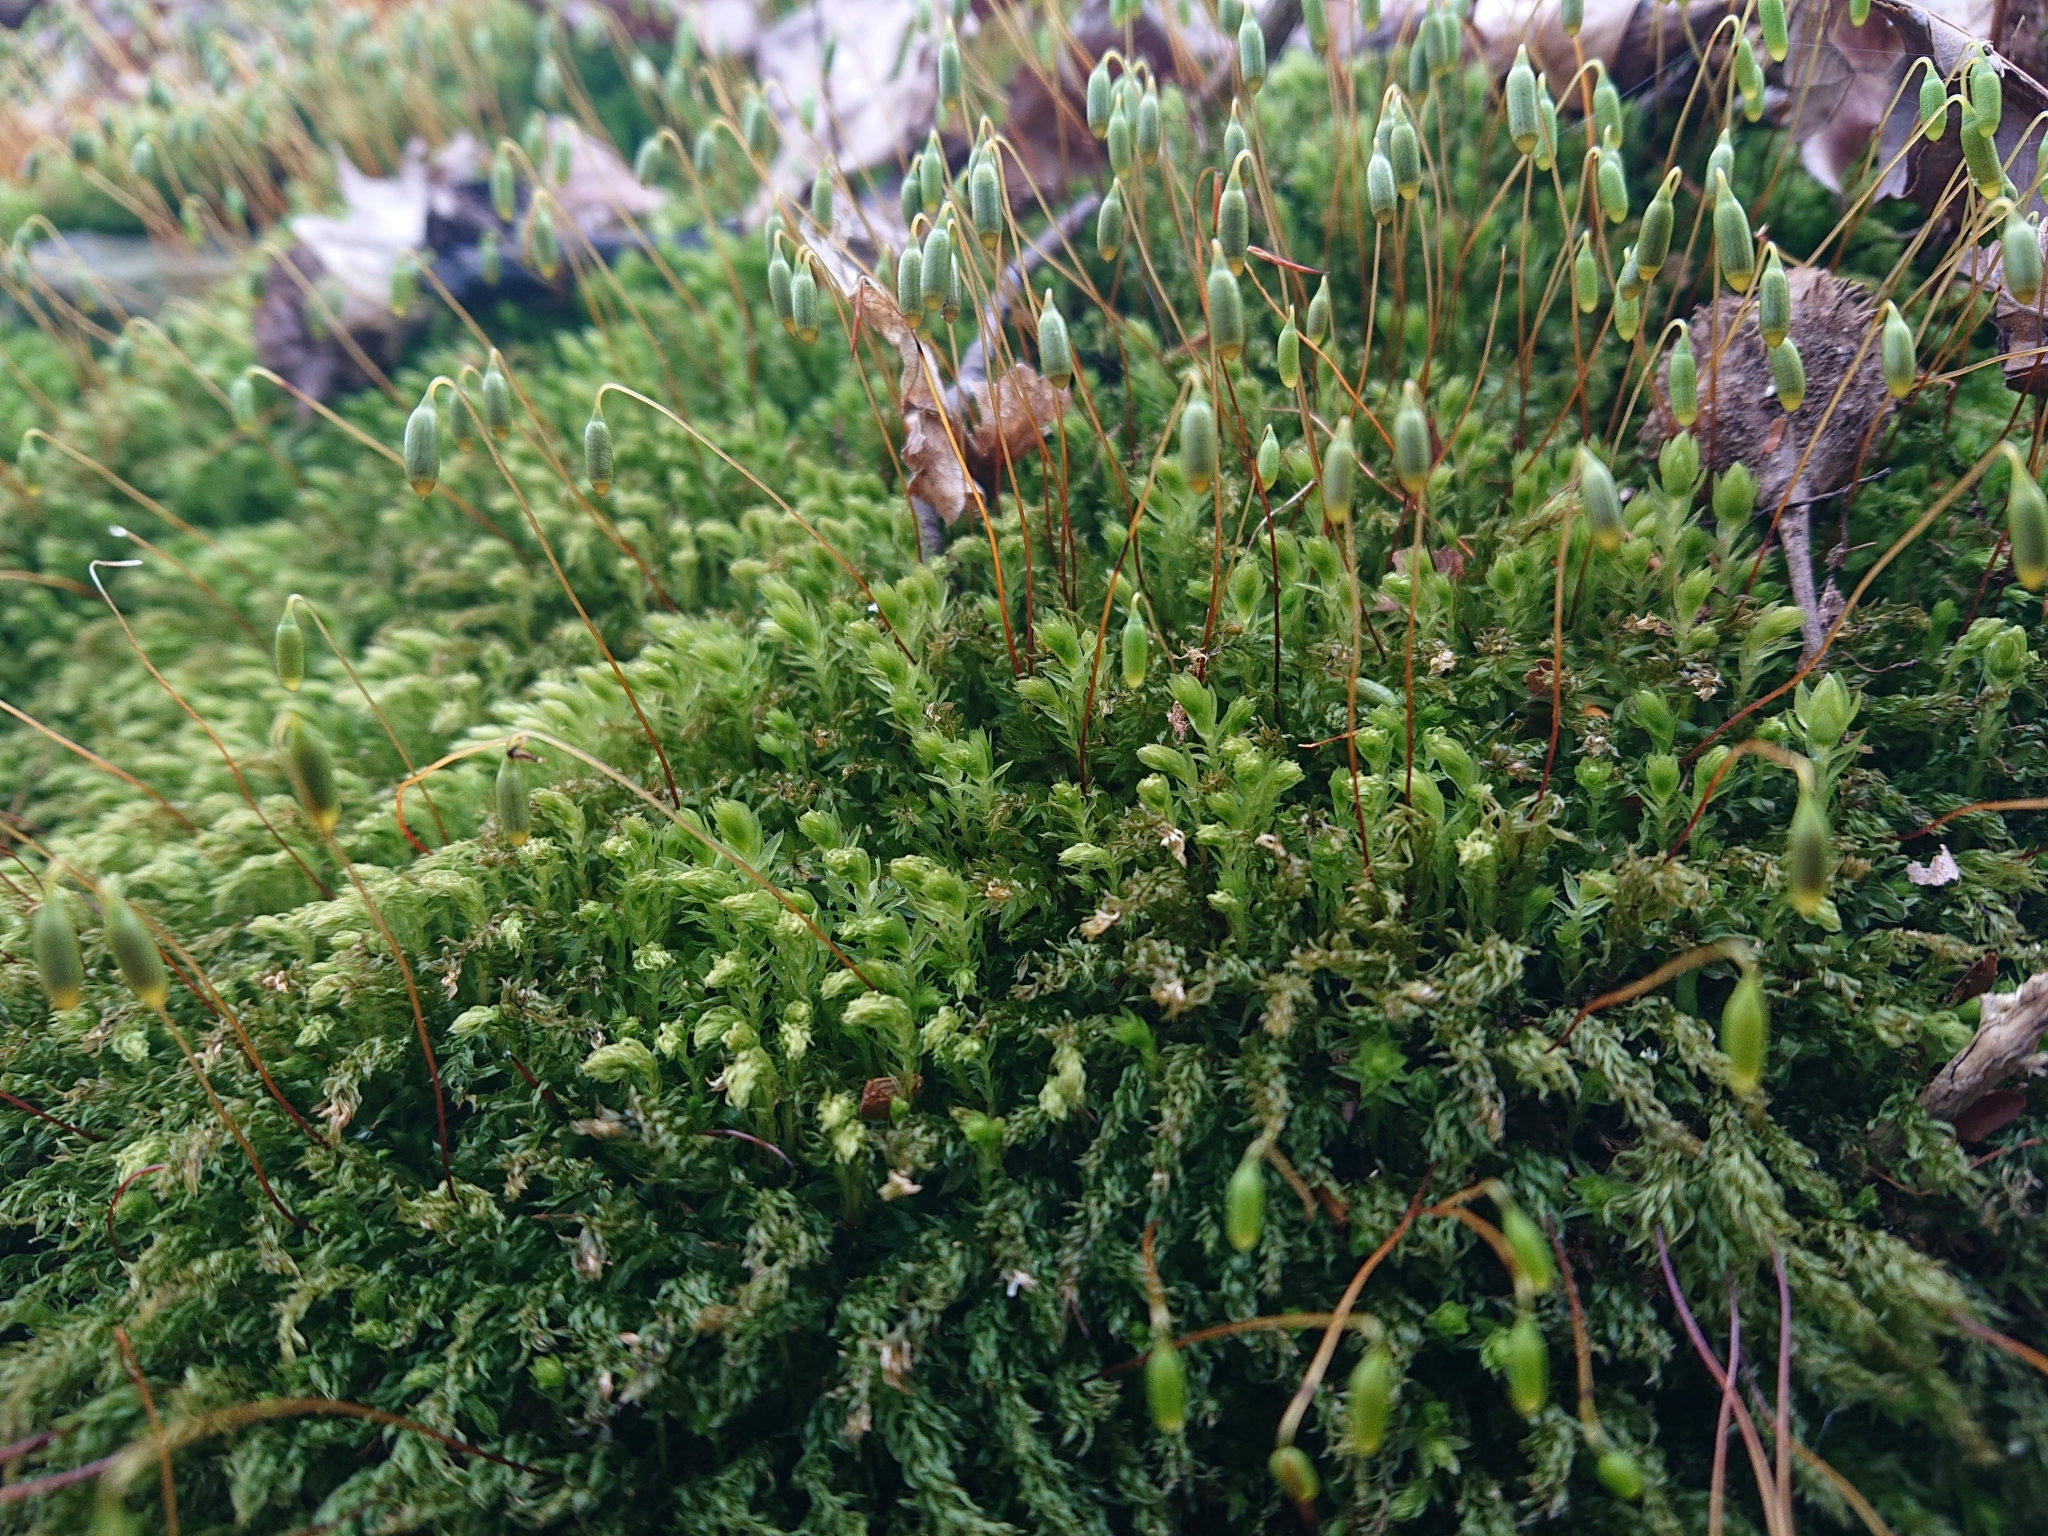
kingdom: Plantae
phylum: Bryophyta
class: Bryopsida
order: Bryales
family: Mniaceae
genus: Mnium
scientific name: Mnium hornum
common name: Swan's-neck leafy moss
